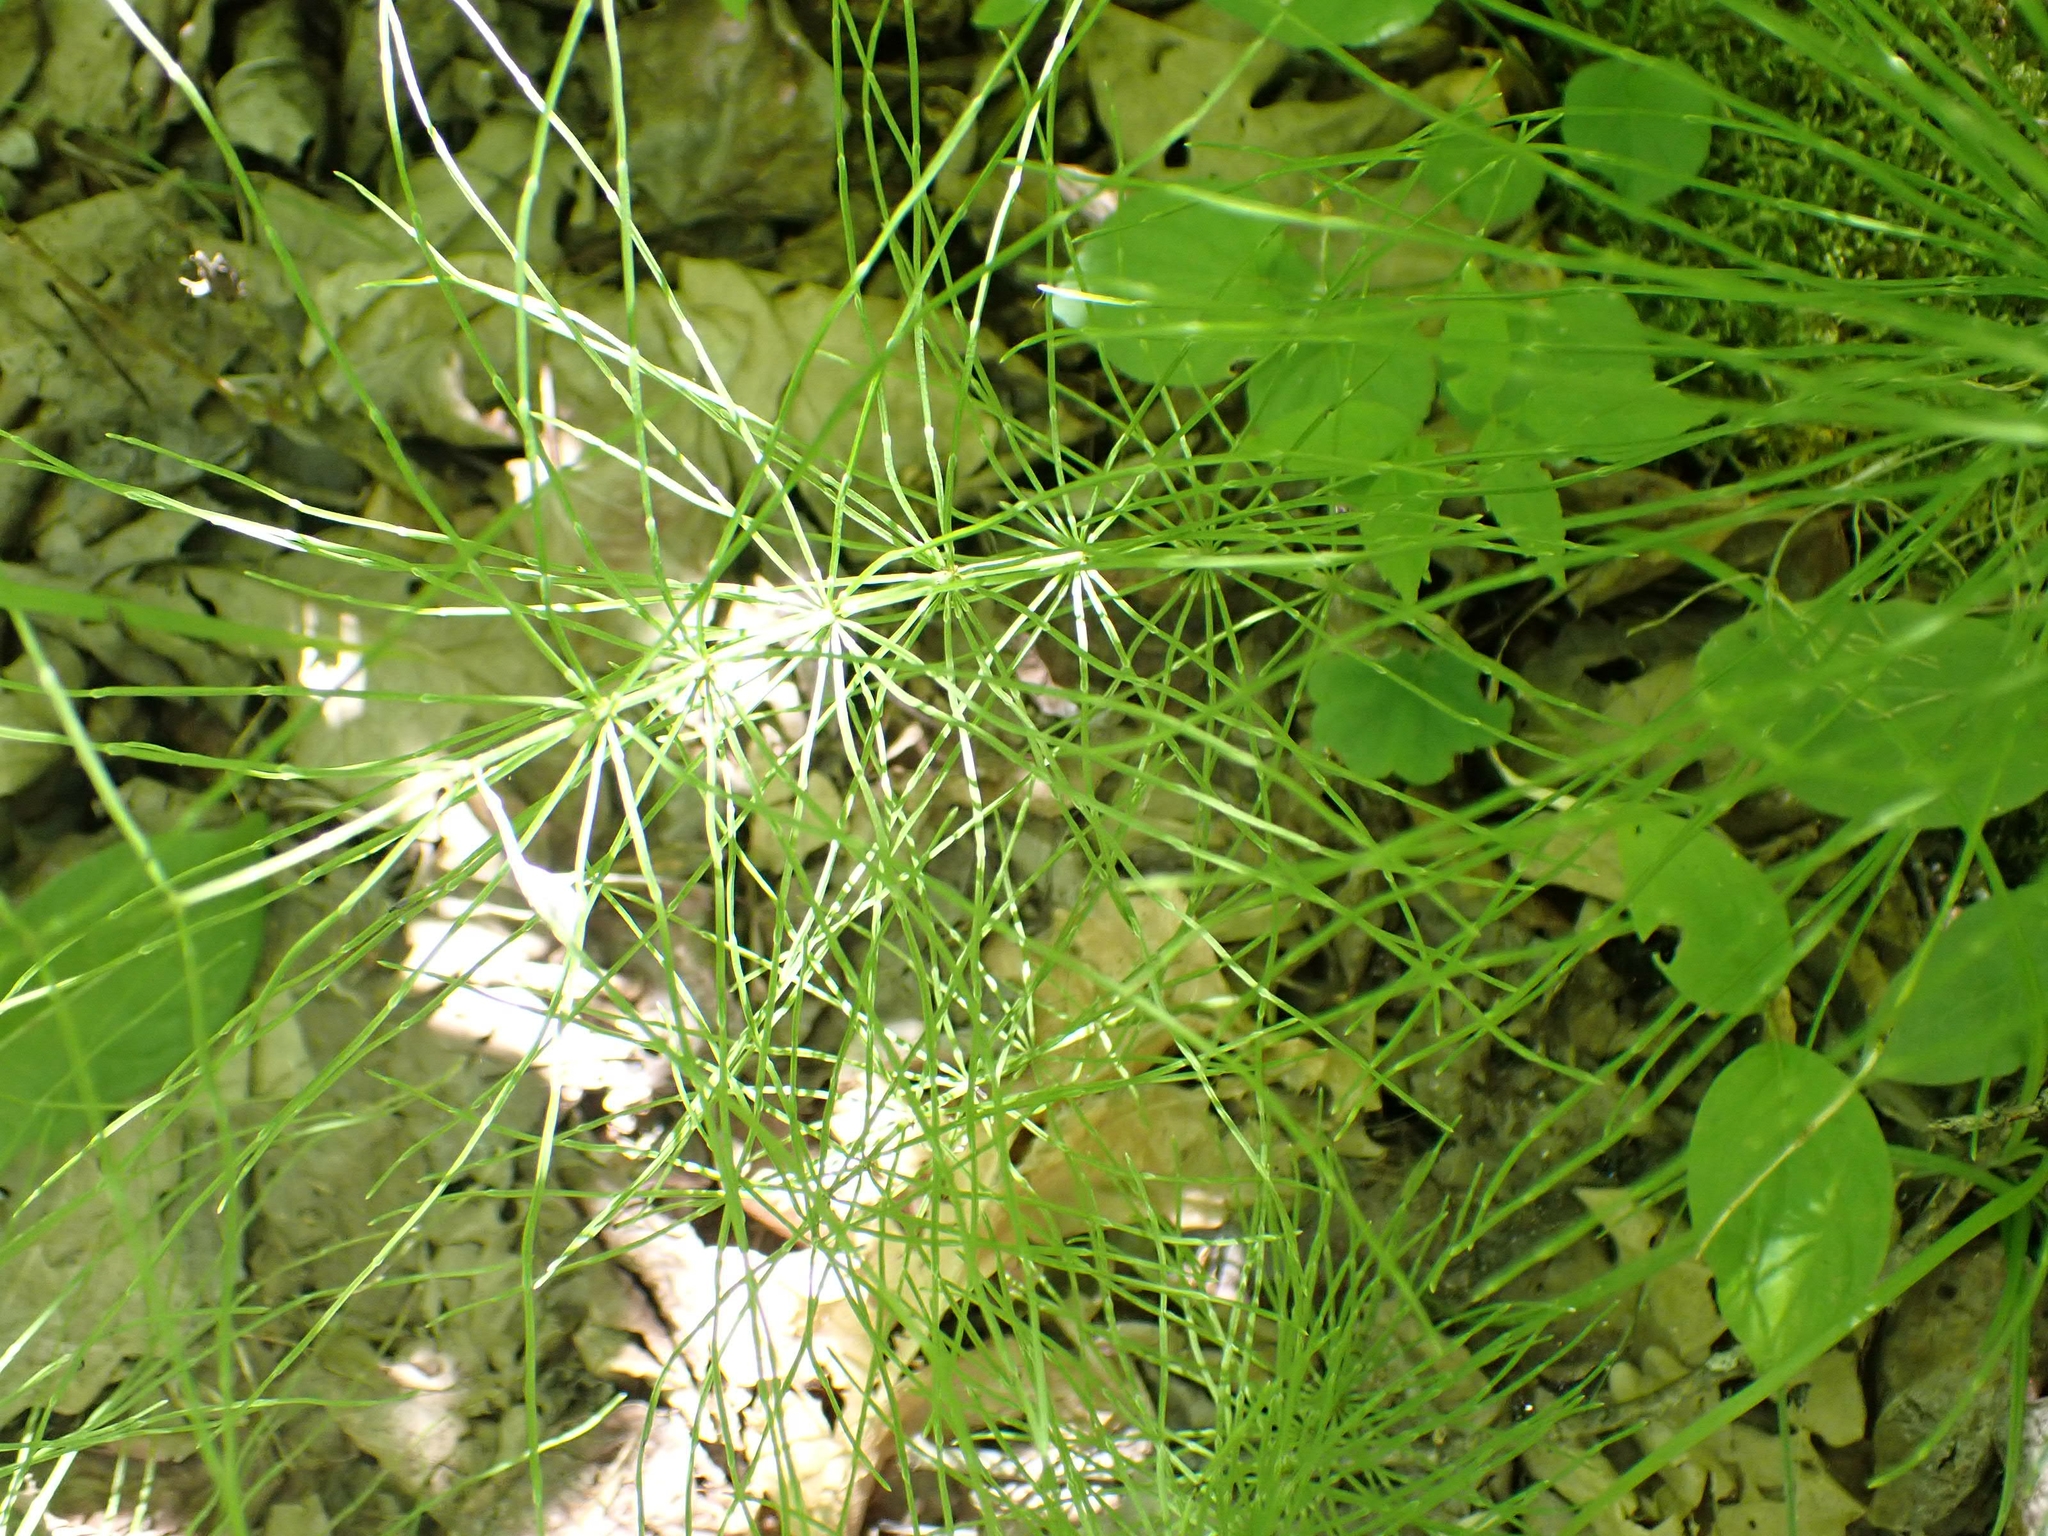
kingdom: Plantae
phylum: Tracheophyta
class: Polypodiopsida
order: Equisetales
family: Equisetaceae
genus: Equisetum
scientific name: Equisetum pratense
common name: Meadow horsetail
